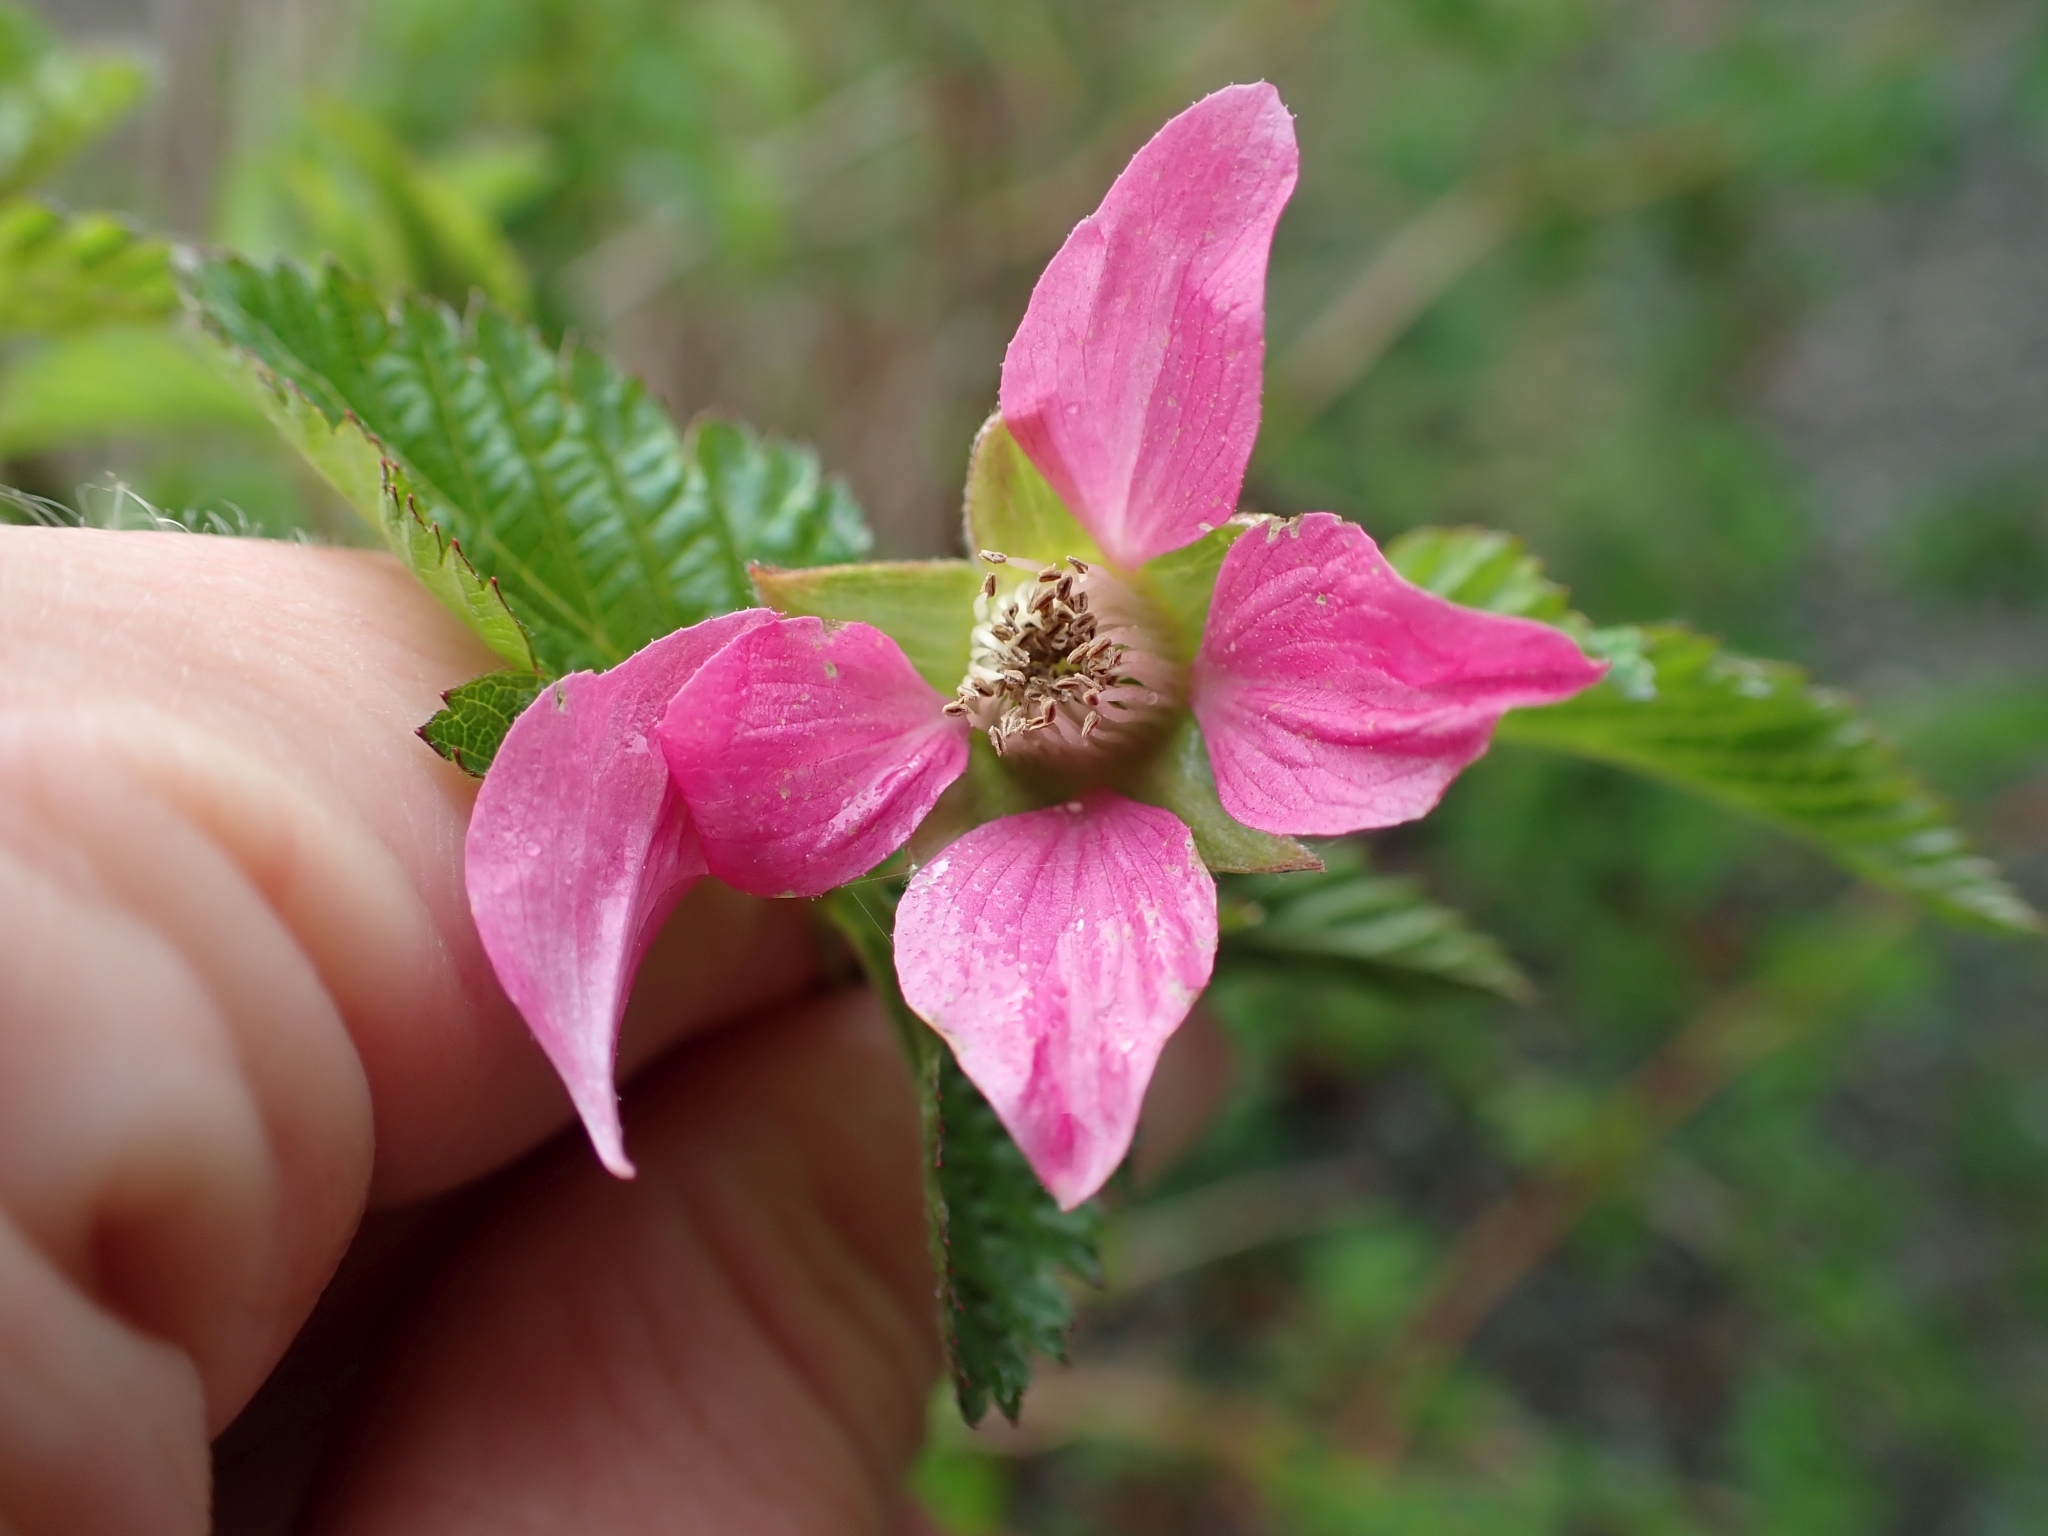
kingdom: Plantae
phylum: Tracheophyta
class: Magnoliopsida
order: Rosales
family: Rosaceae
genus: Rubus
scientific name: Rubus spectabilis
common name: Salmonberry
